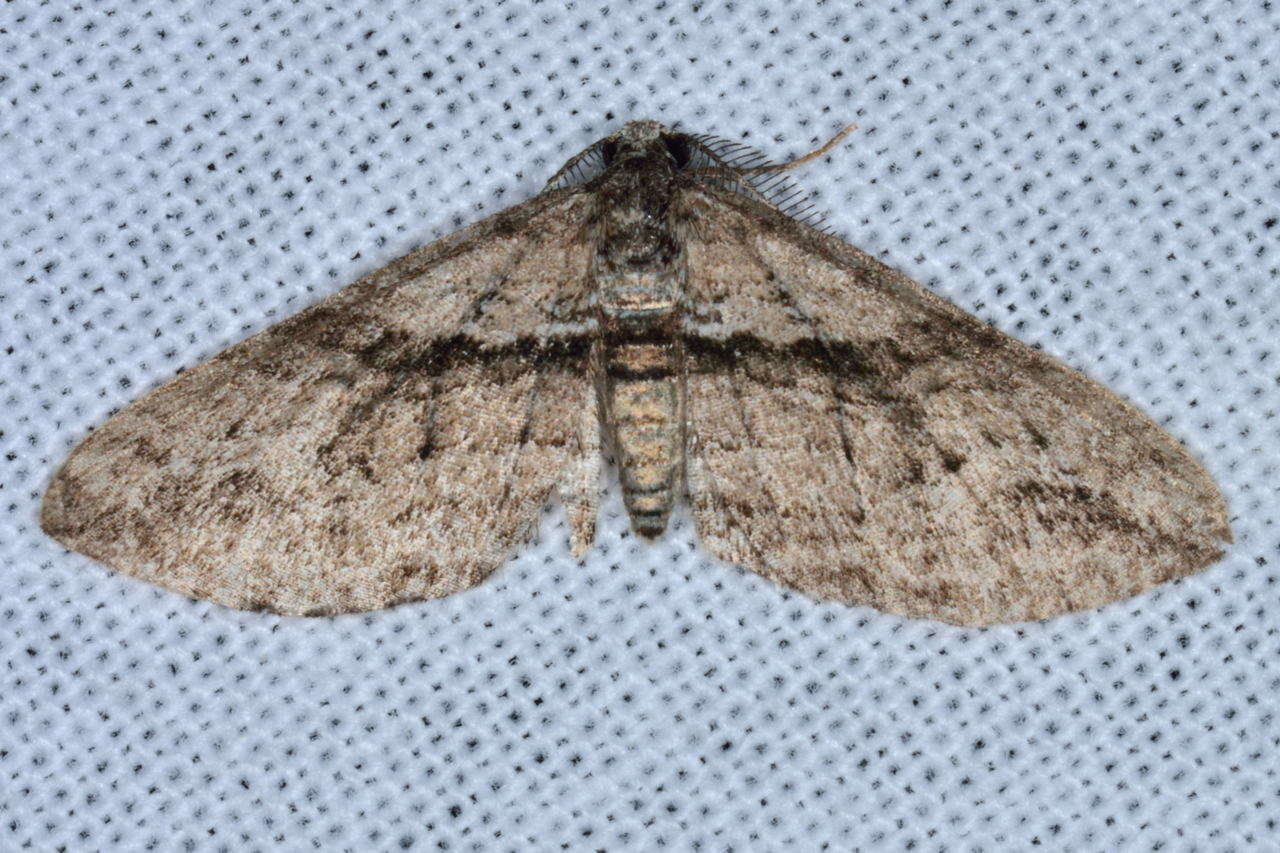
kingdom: Animalia
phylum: Arthropoda
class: Insecta
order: Lepidoptera
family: Geometridae
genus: Hypycnopa
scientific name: Hypycnopa delotis
